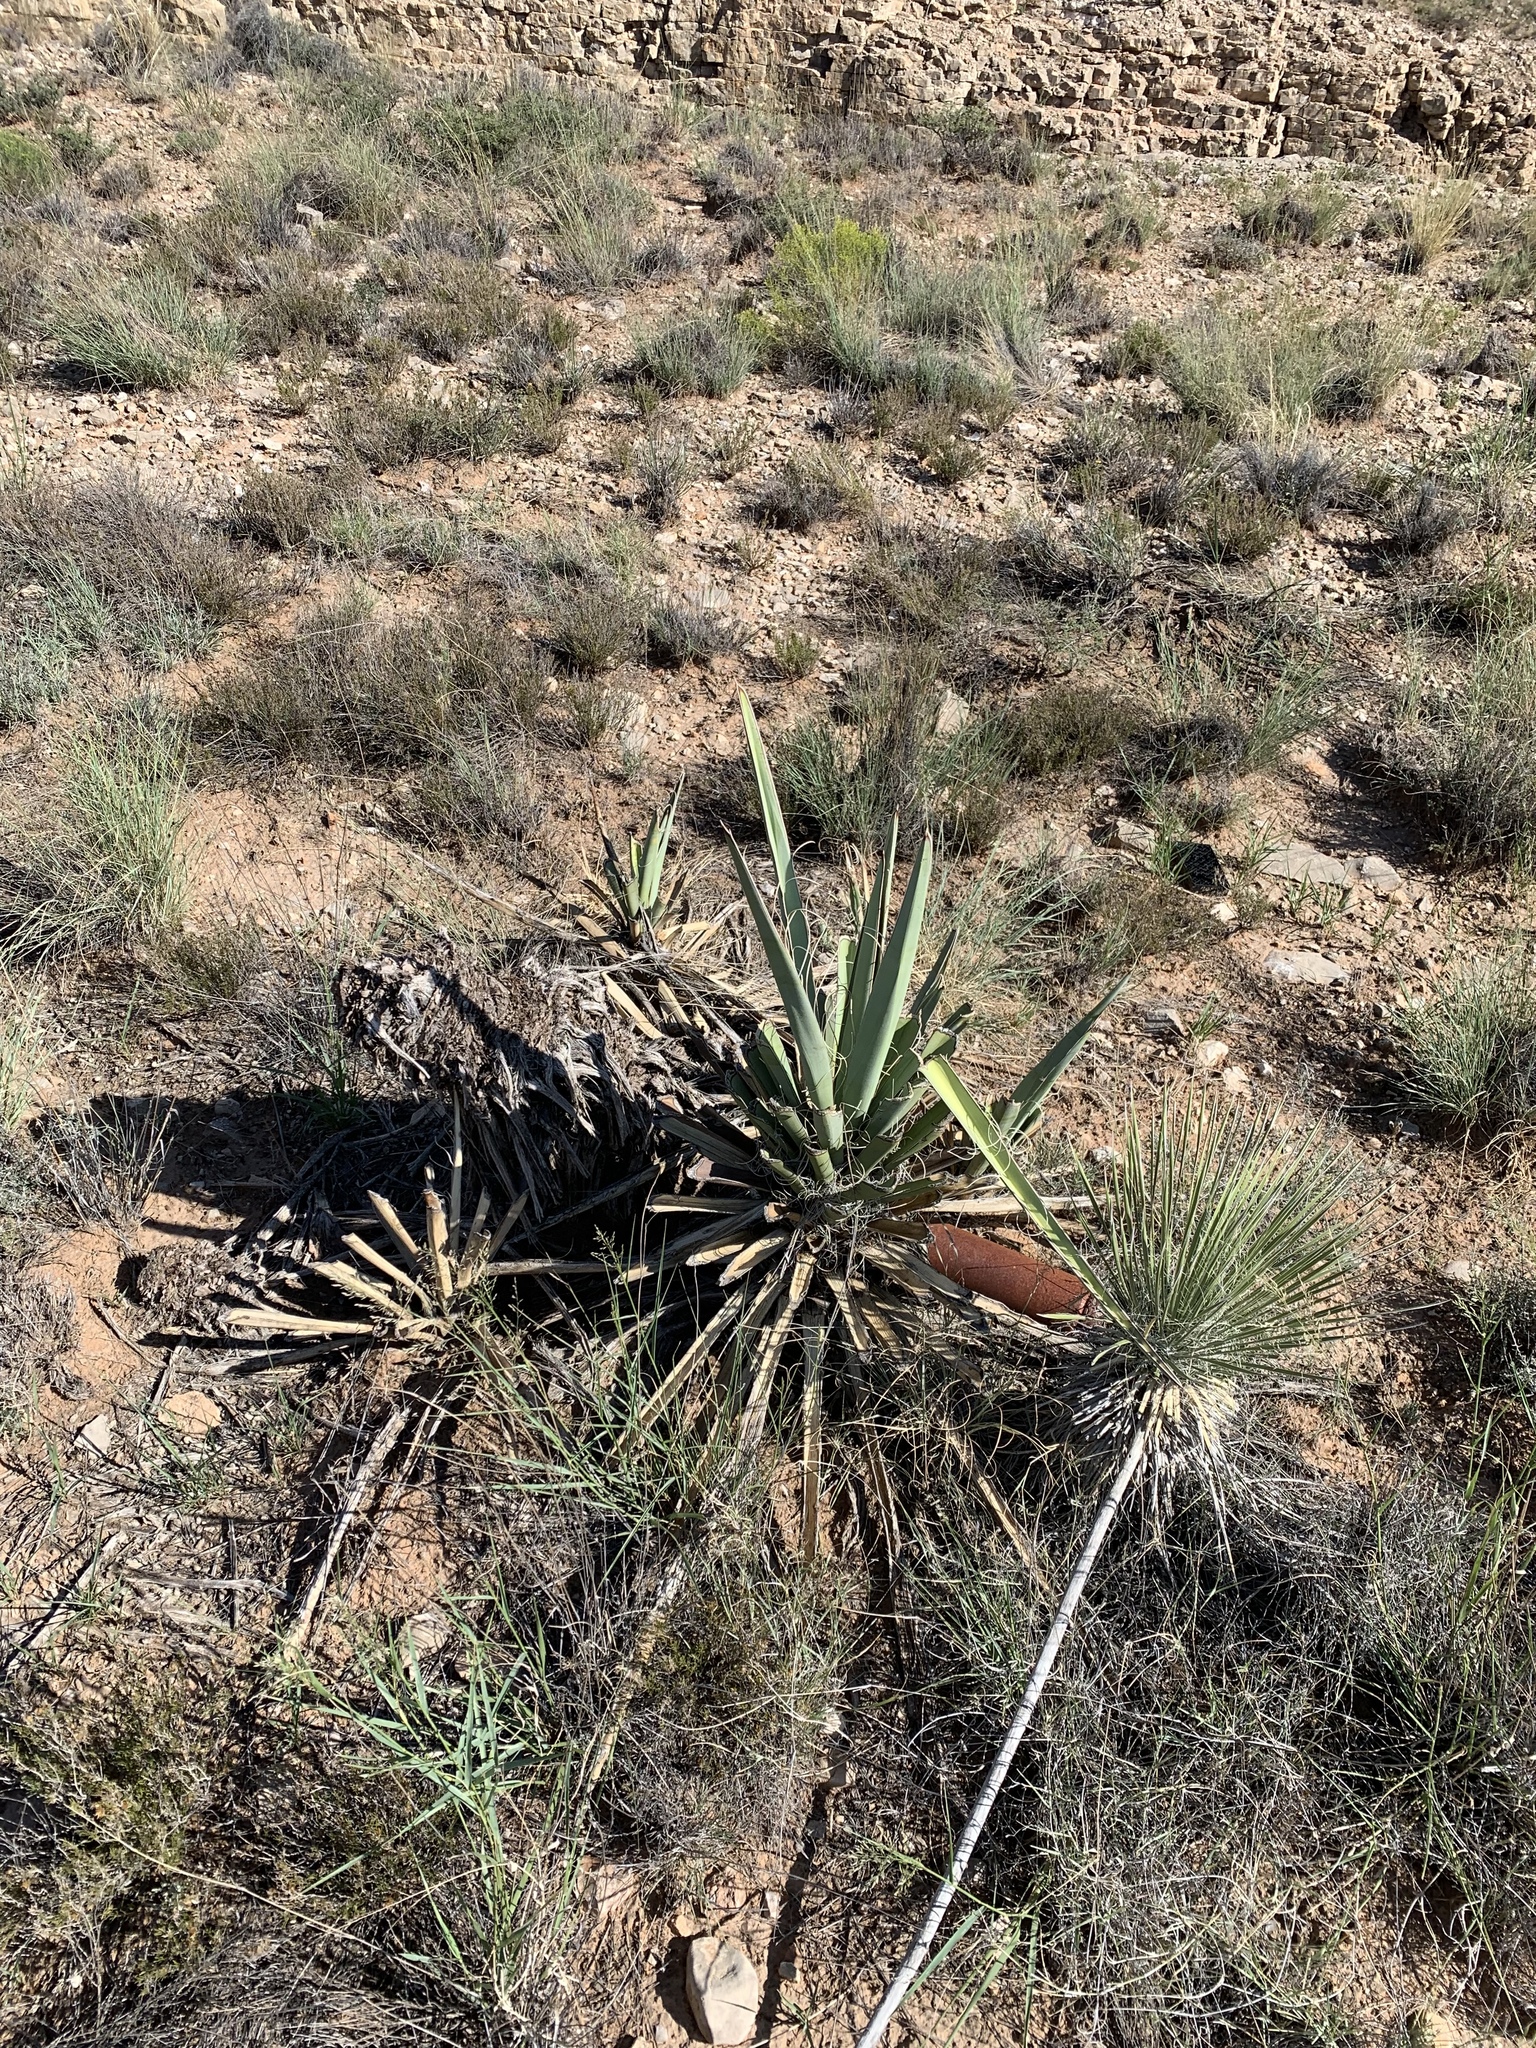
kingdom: Plantae
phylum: Tracheophyta
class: Liliopsida
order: Asparagales
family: Asparagaceae
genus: Yucca
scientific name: Yucca baccata
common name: Banana yucca
